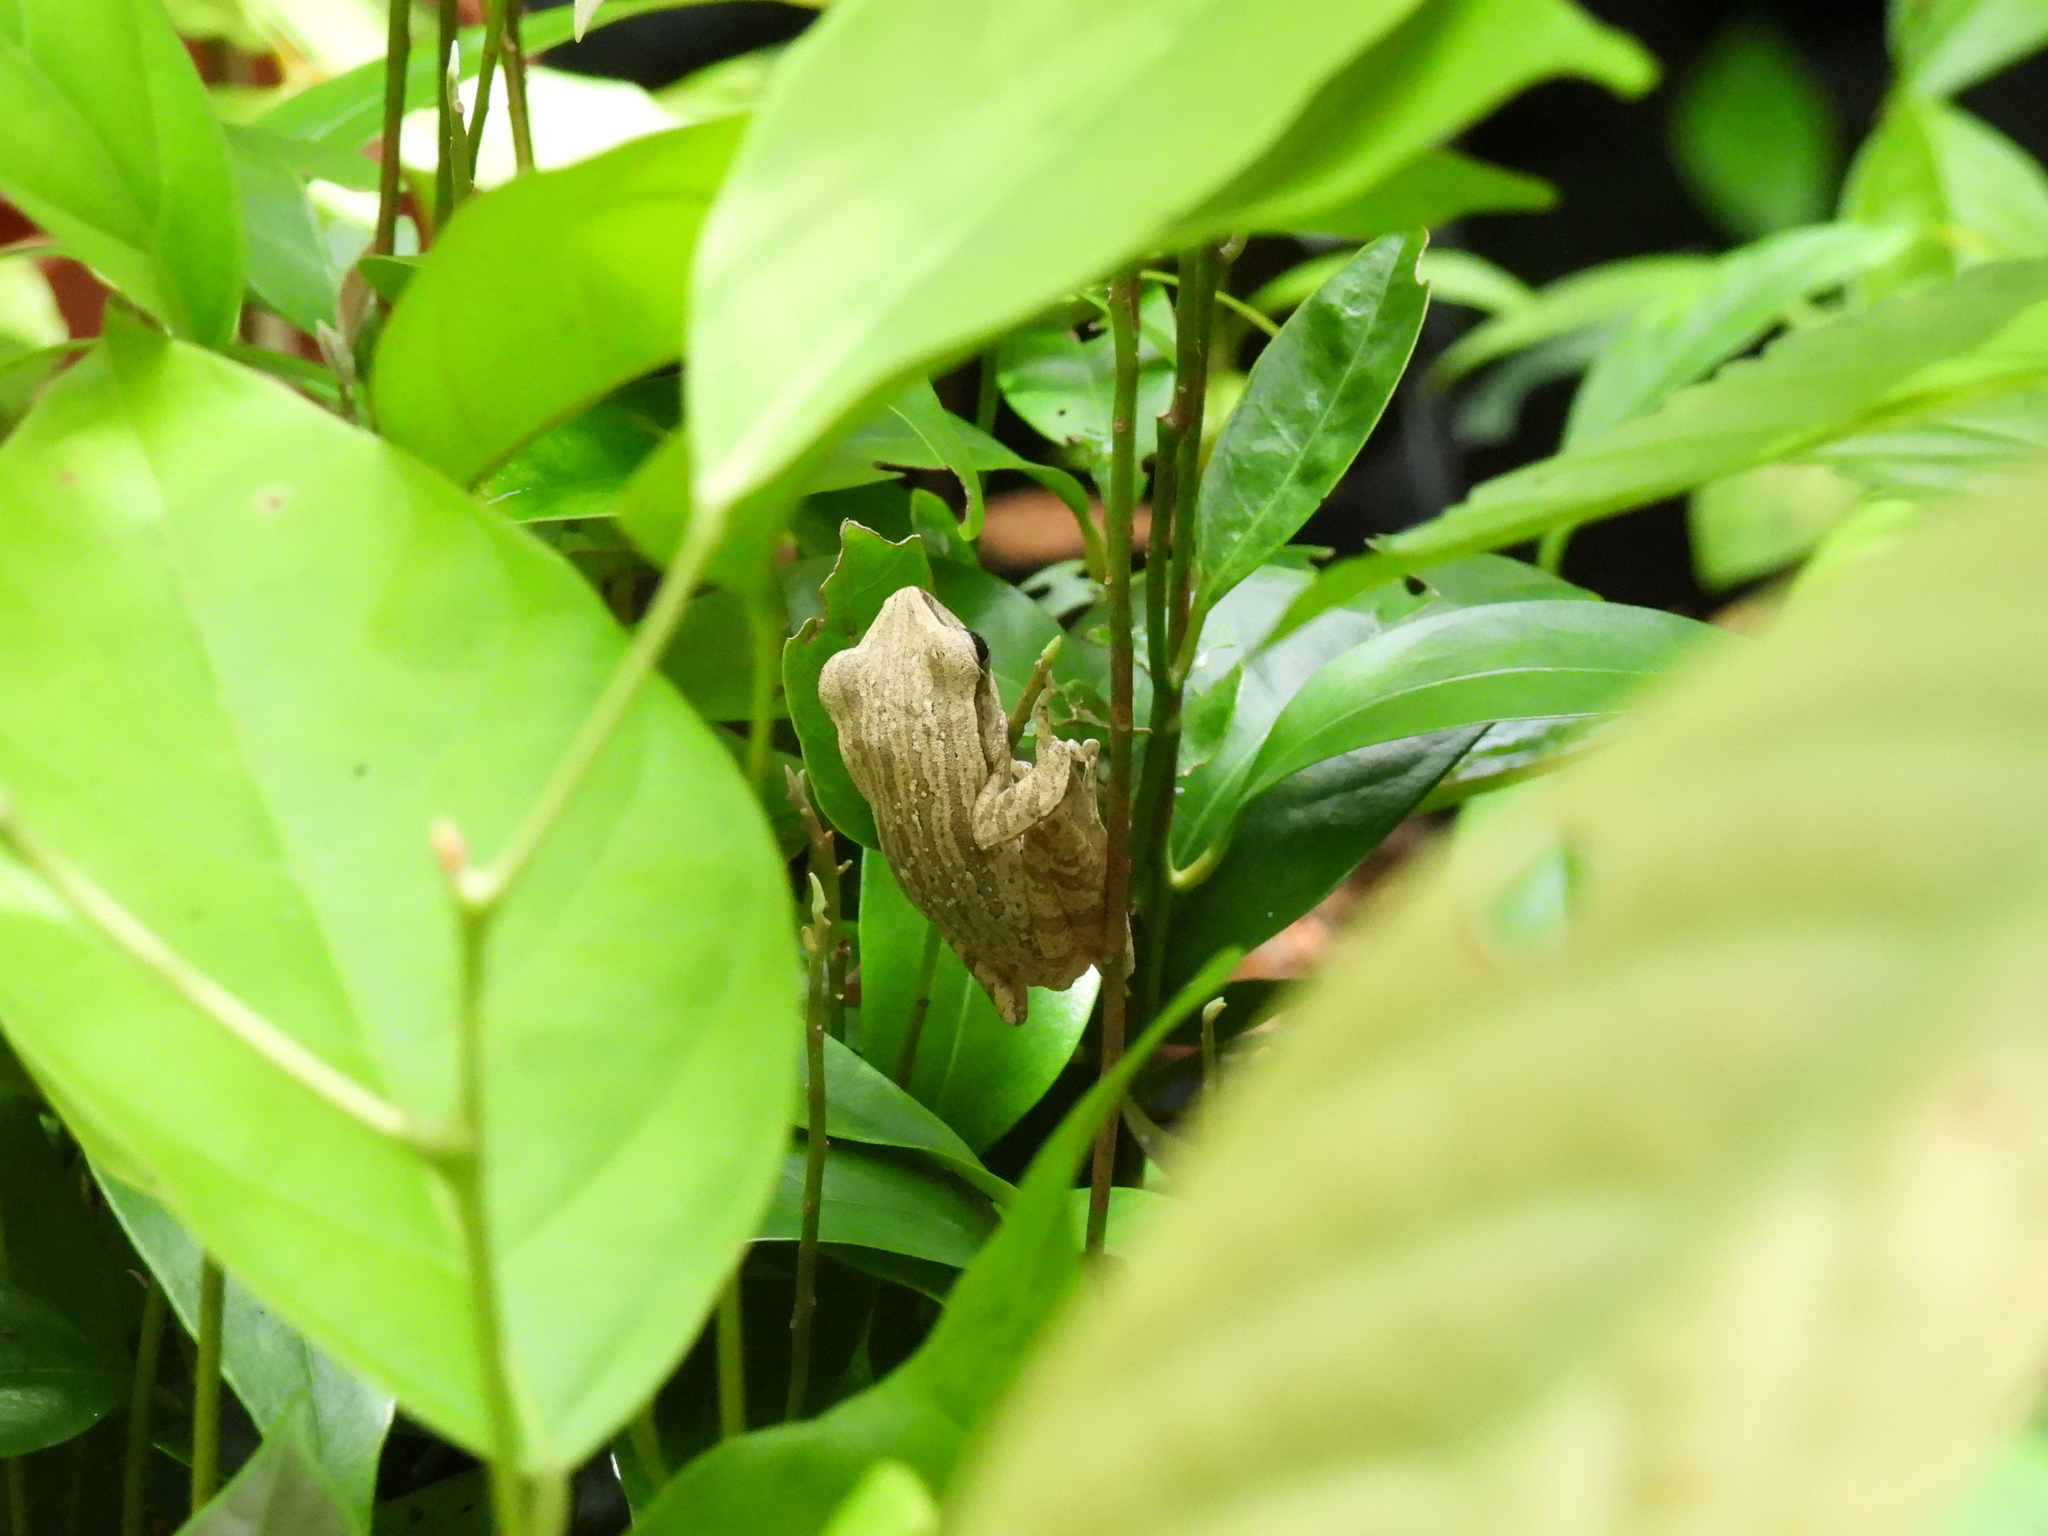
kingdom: Animalia
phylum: Chordata
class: Amphibia
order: Anura
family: Rhacophoridae
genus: Polypedates
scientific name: Polypedates leucomystax
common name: Common tree frog/four-lined tree frog
